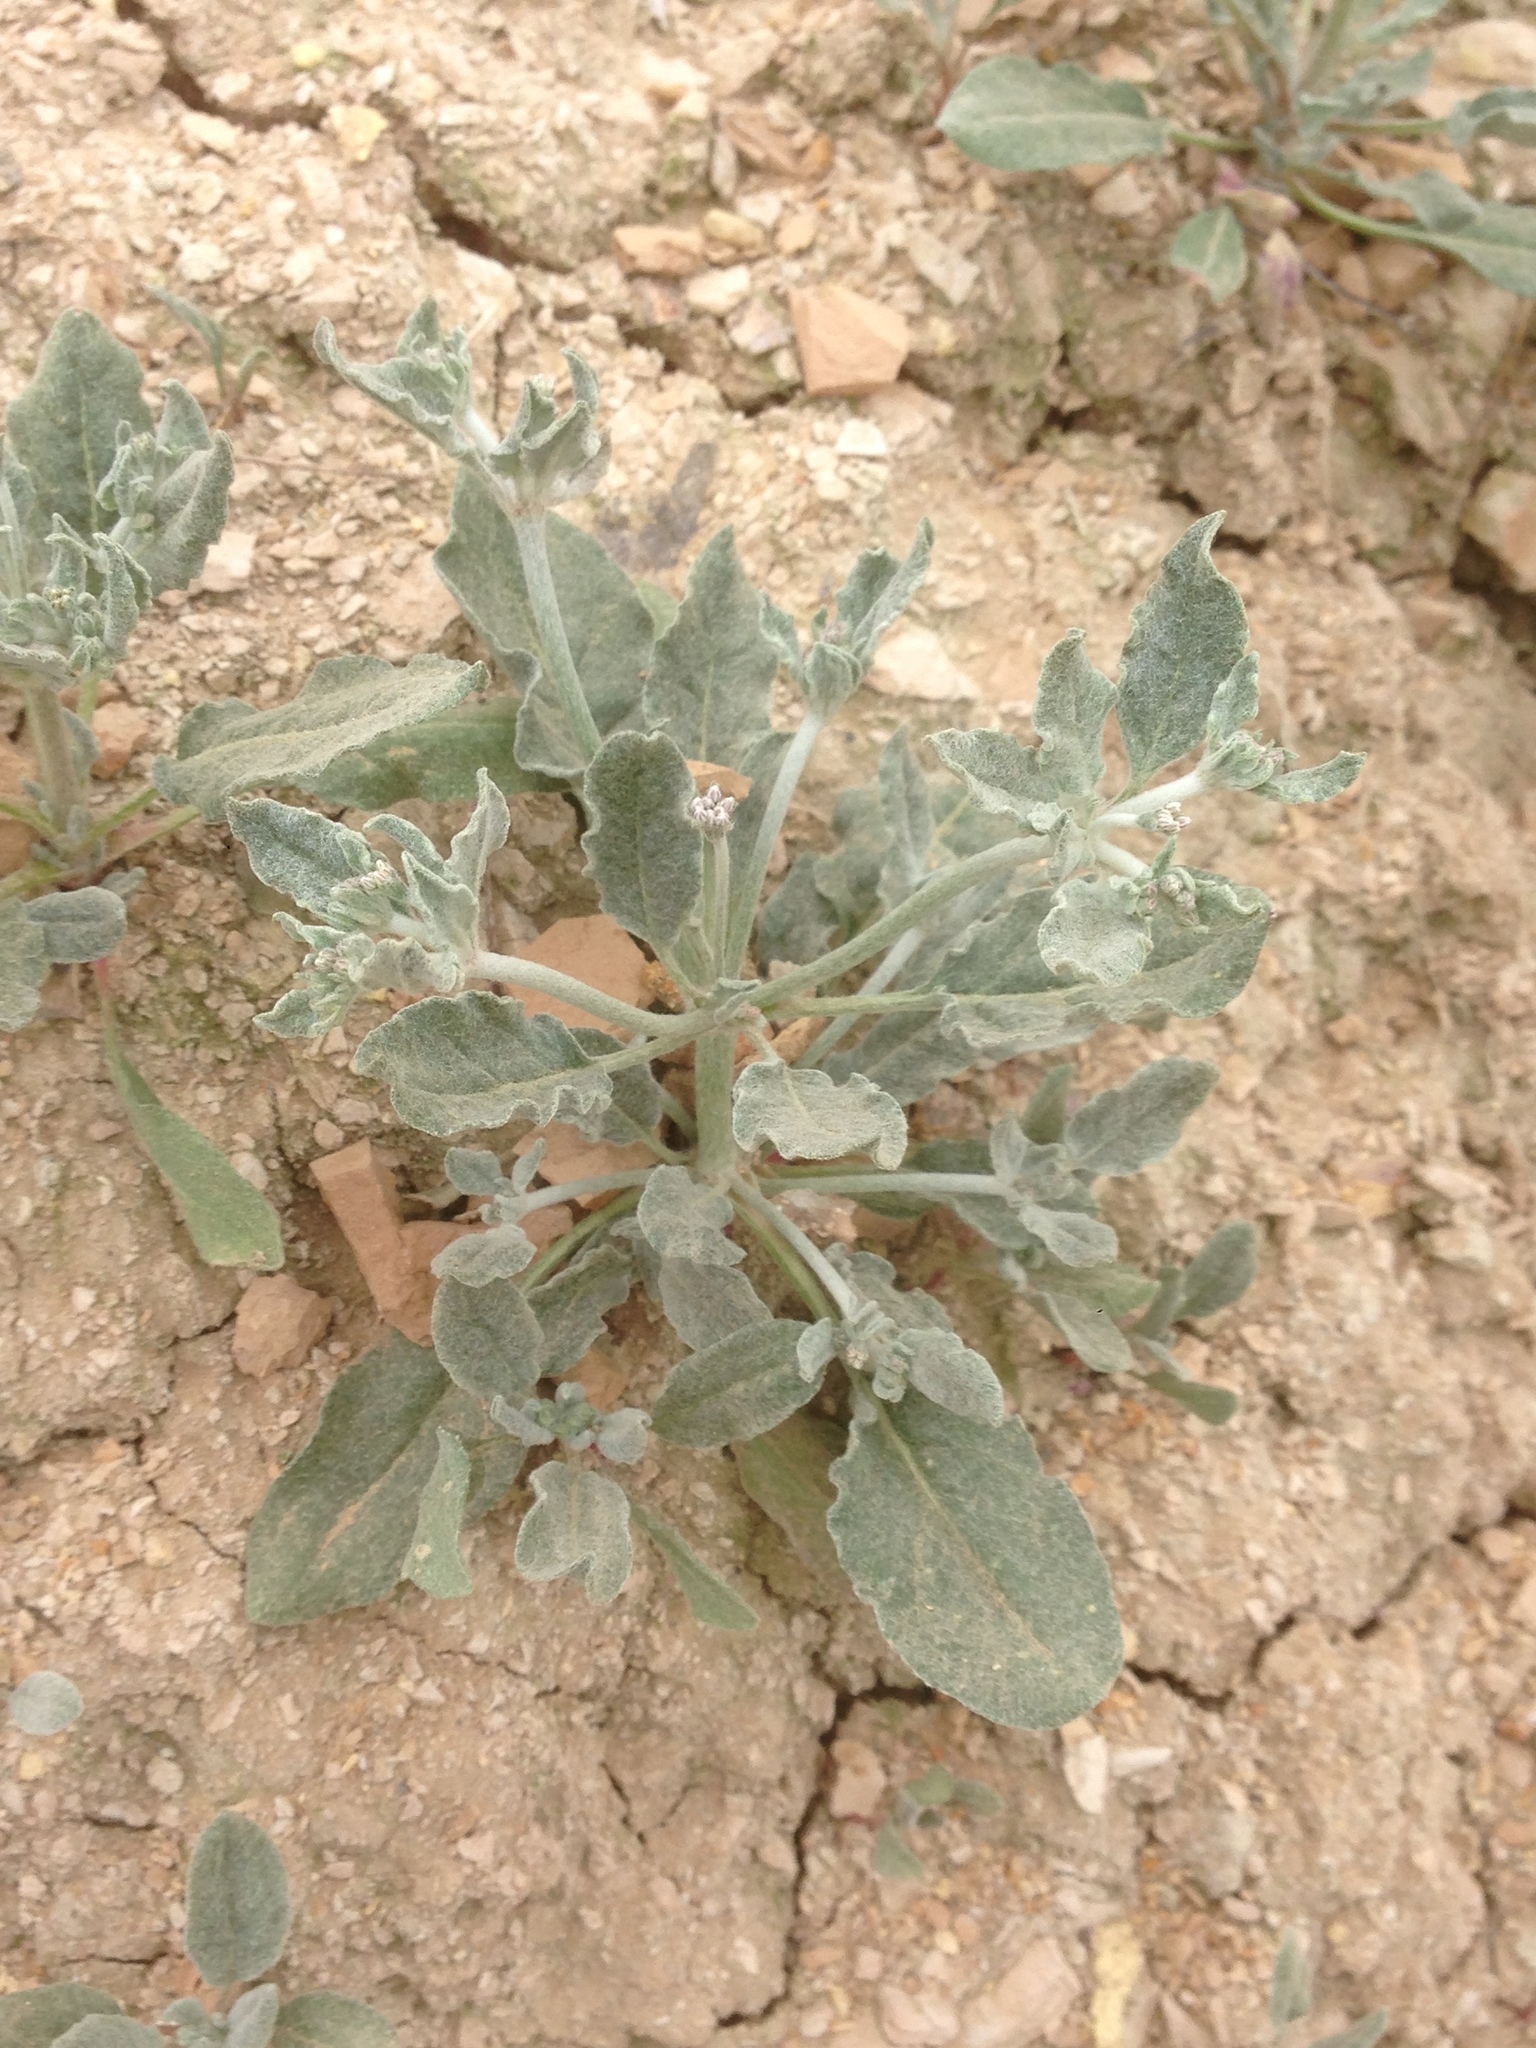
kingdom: Plantae
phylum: Tracheophyta
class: Magnoliopsida
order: Caryophyllales
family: Polygonaceae
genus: Eriogonum
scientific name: Eriogonum vestitum
